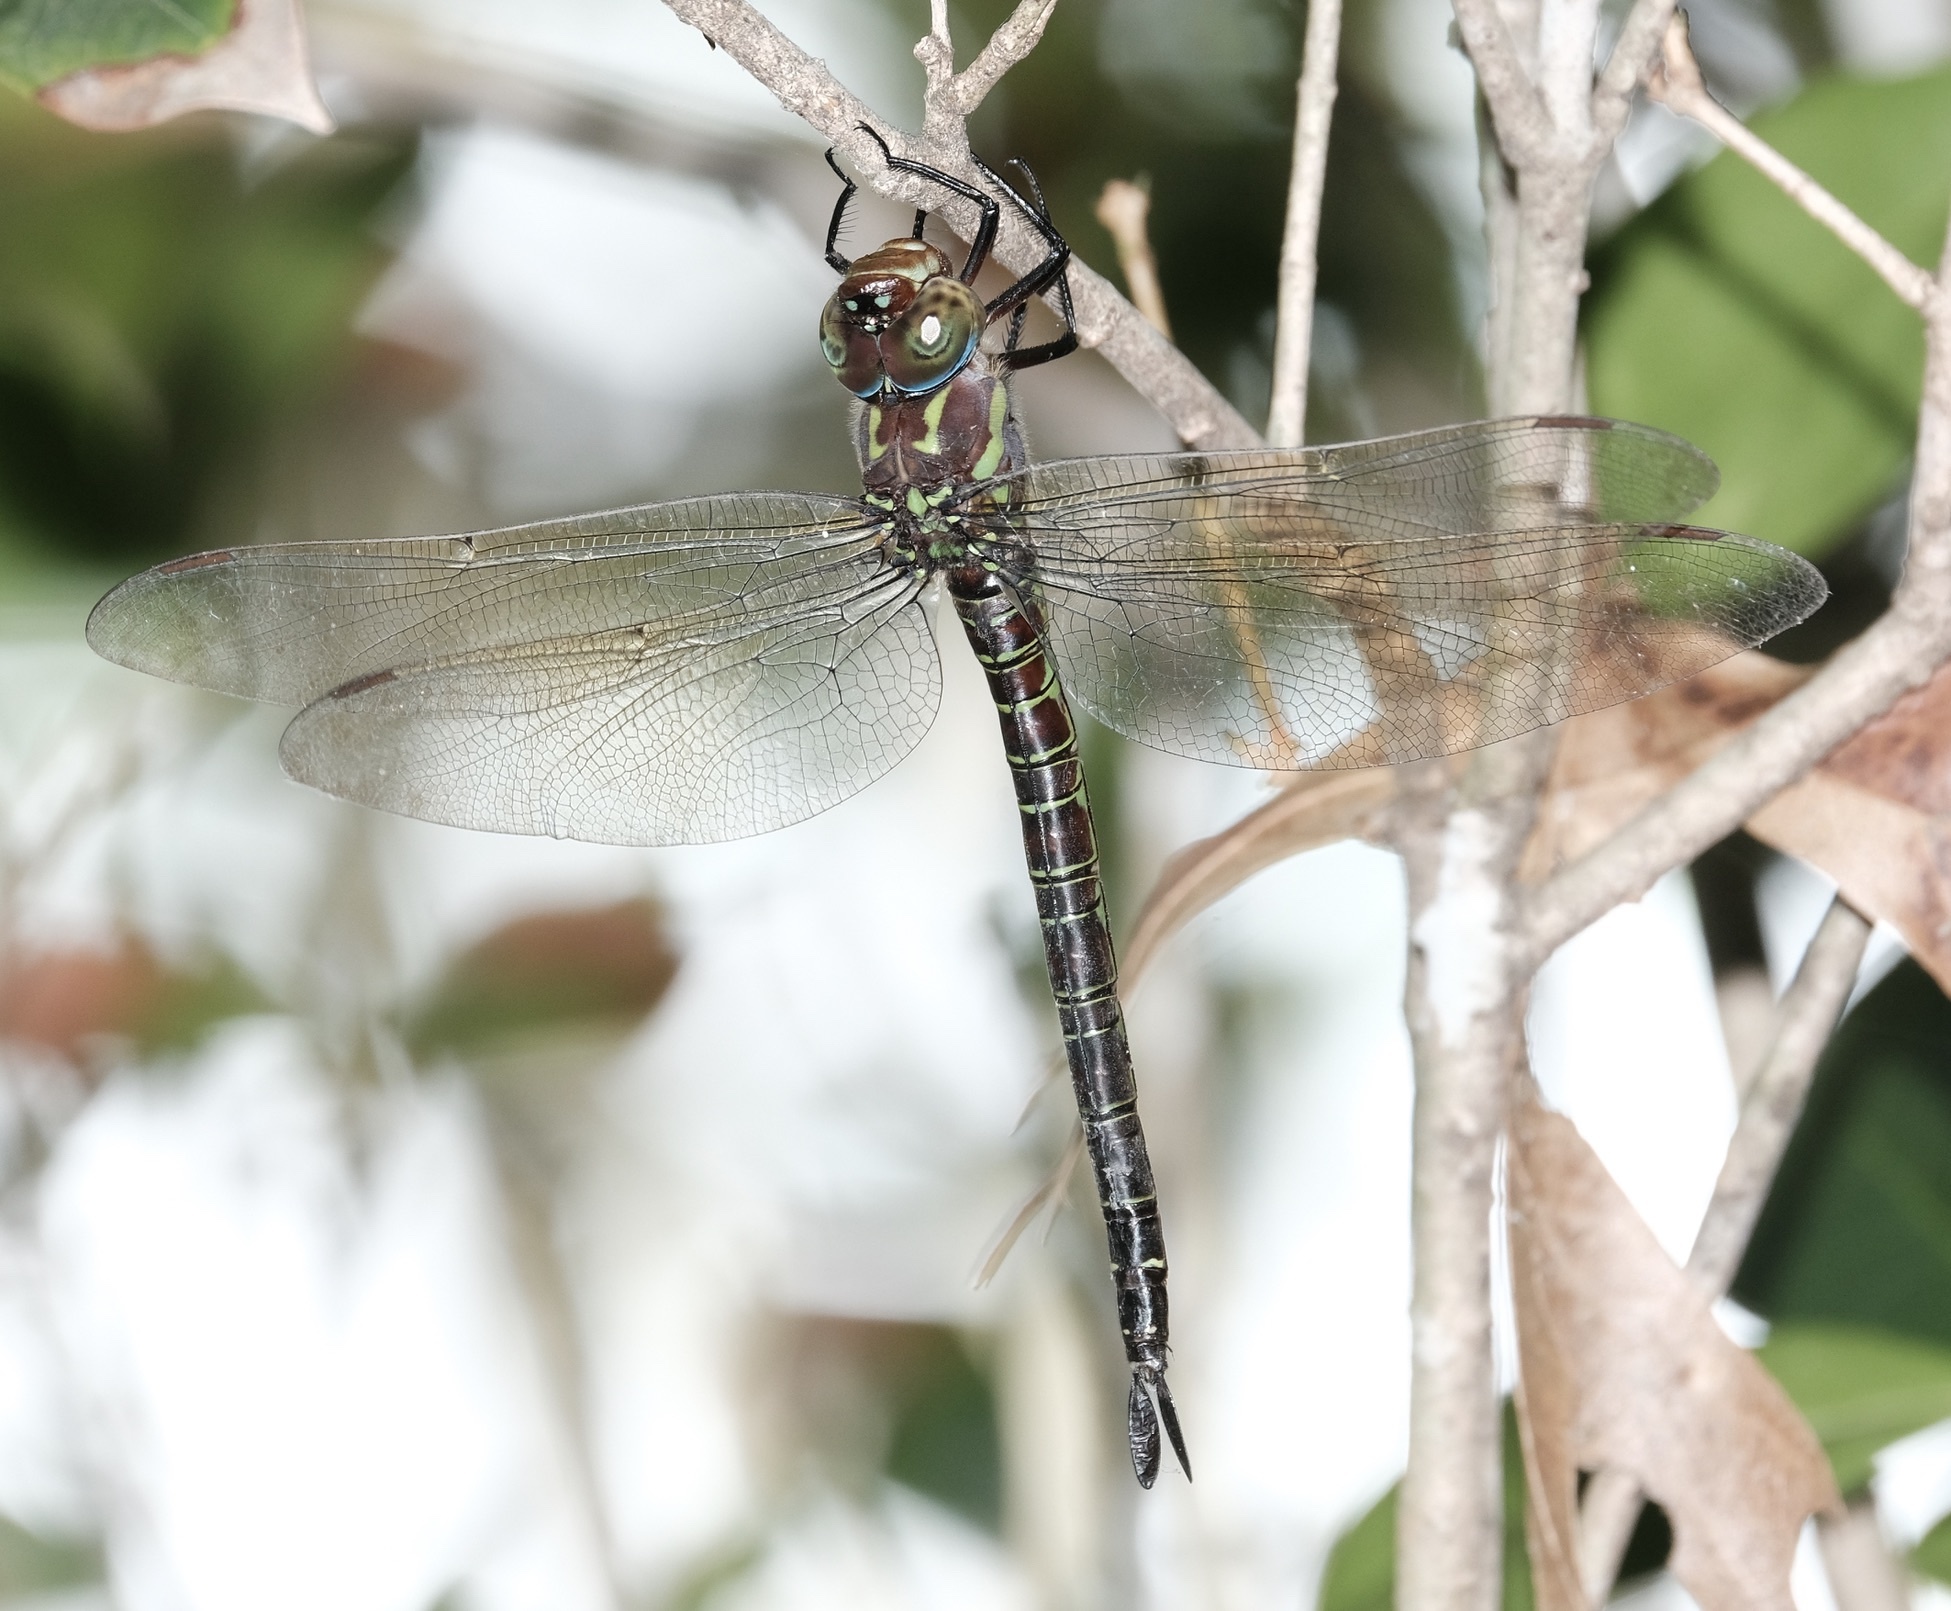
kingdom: Animalia
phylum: Arthropoda
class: Insecta
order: Odonata
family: Aeshnidae
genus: Epiaeschna
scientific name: Epiaeschna heros
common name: Swamp darner
